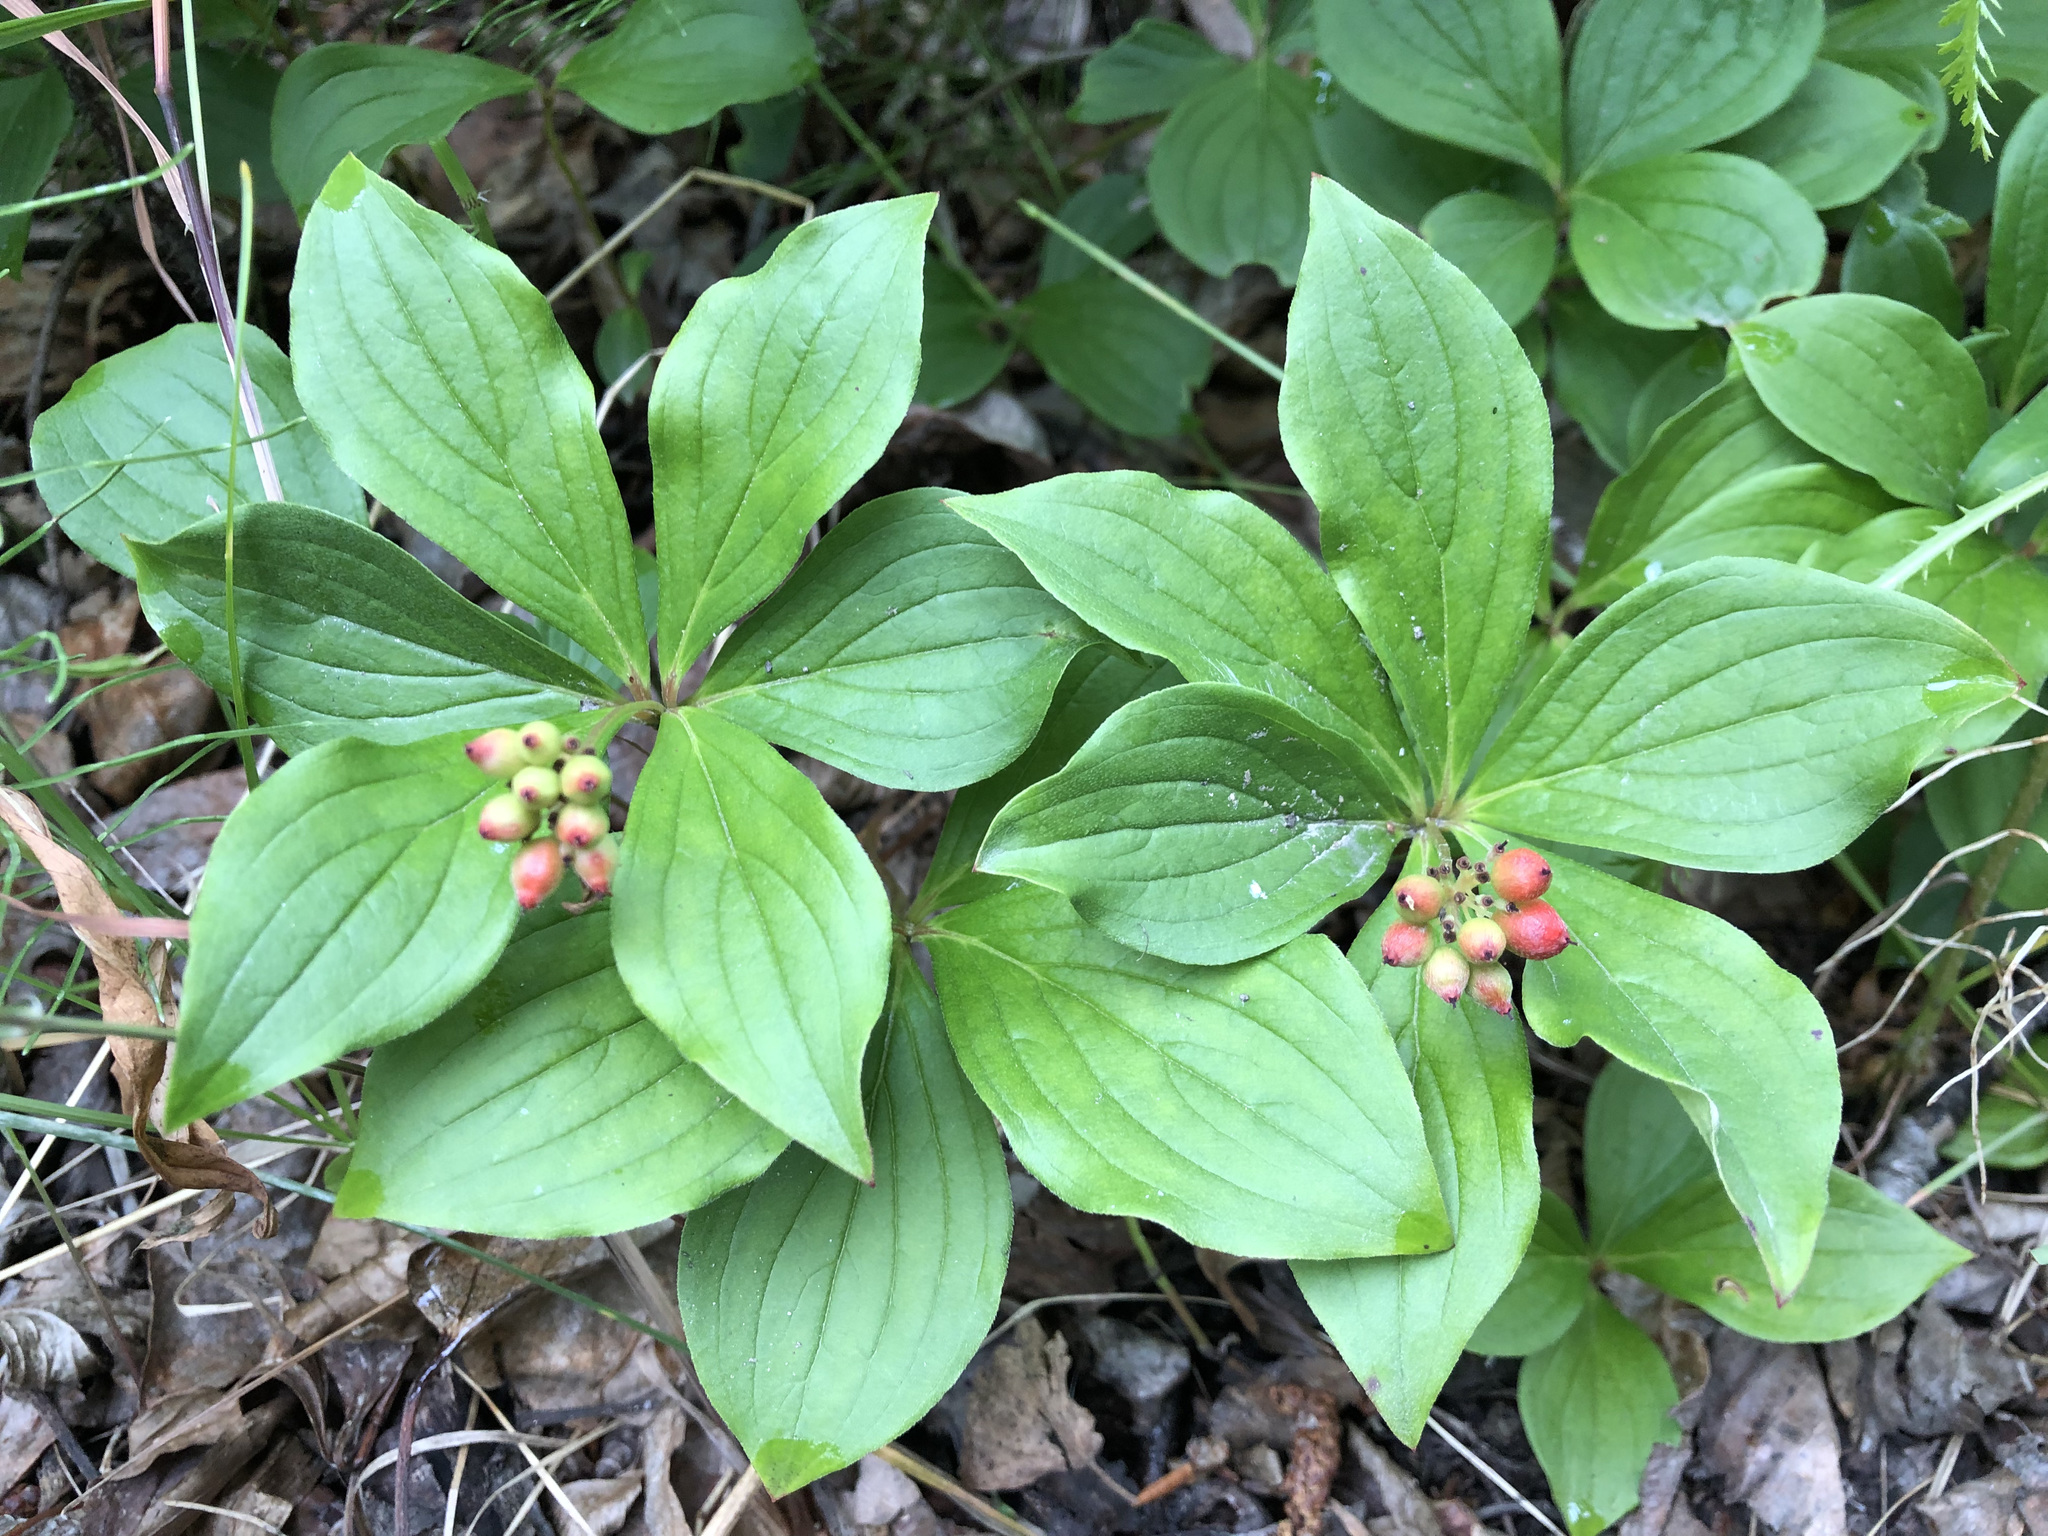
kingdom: Plantae
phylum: Tracheophyta
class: Magnoliopsida
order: Cornales
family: Cornaceae
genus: Cornus
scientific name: Cornus canadensis
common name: Creeping dogwood
